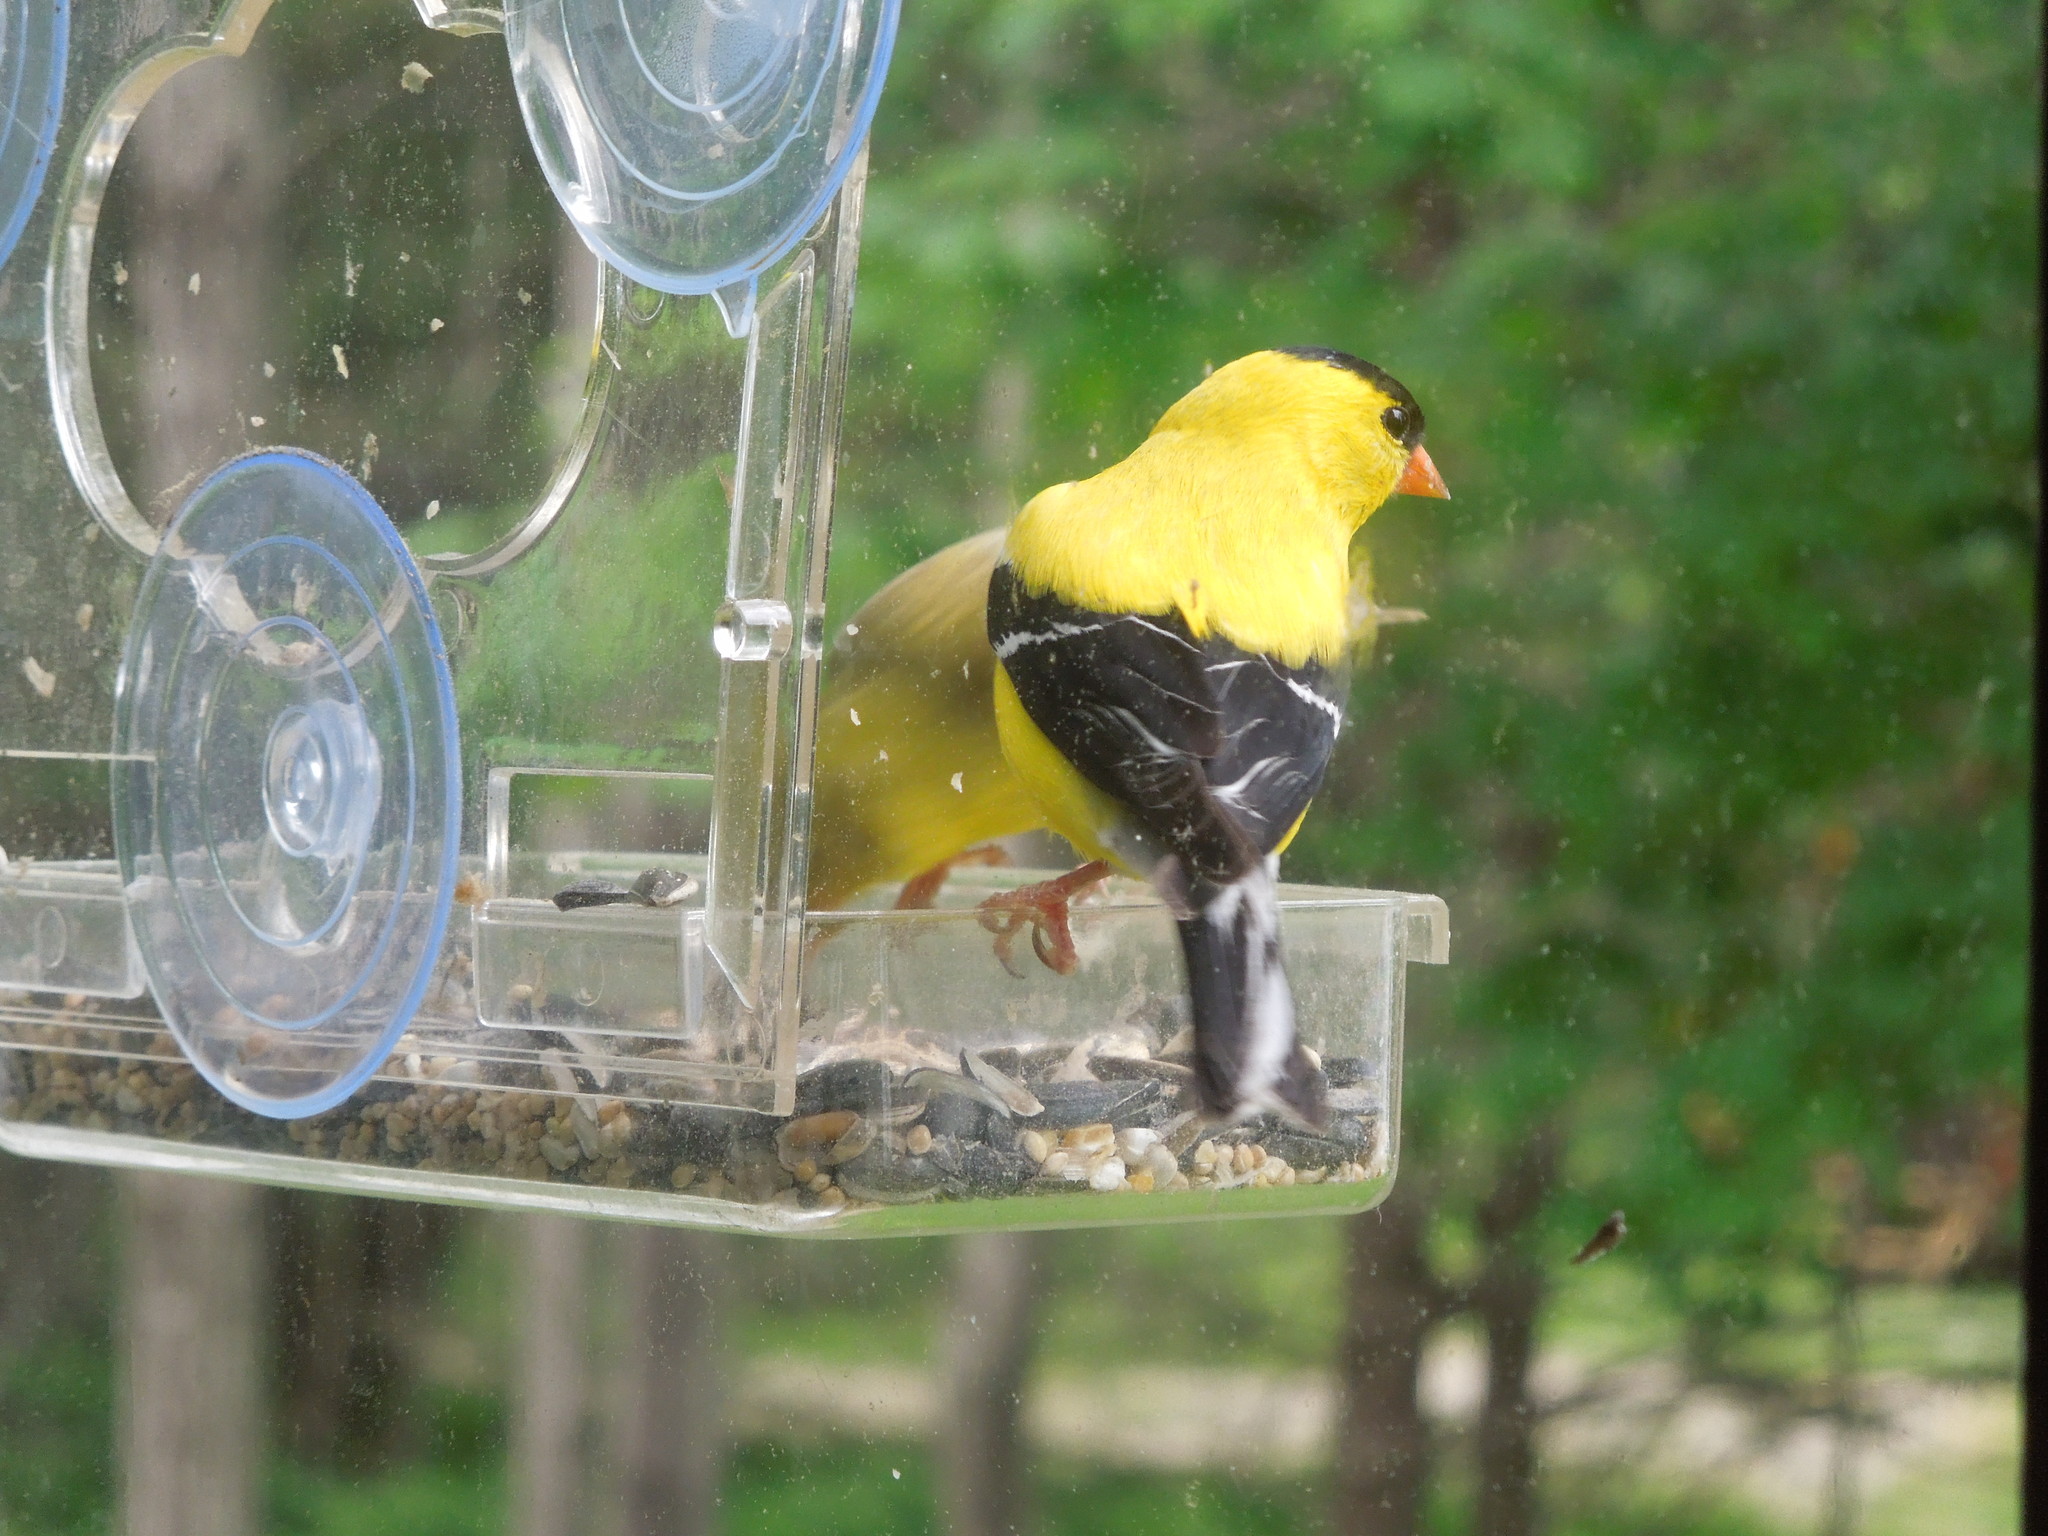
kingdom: Animalia
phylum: Chordata
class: Aves
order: Passeriformes
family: Fringillidae
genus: Spinus
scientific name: Spinus tristis
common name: American goldfinch
